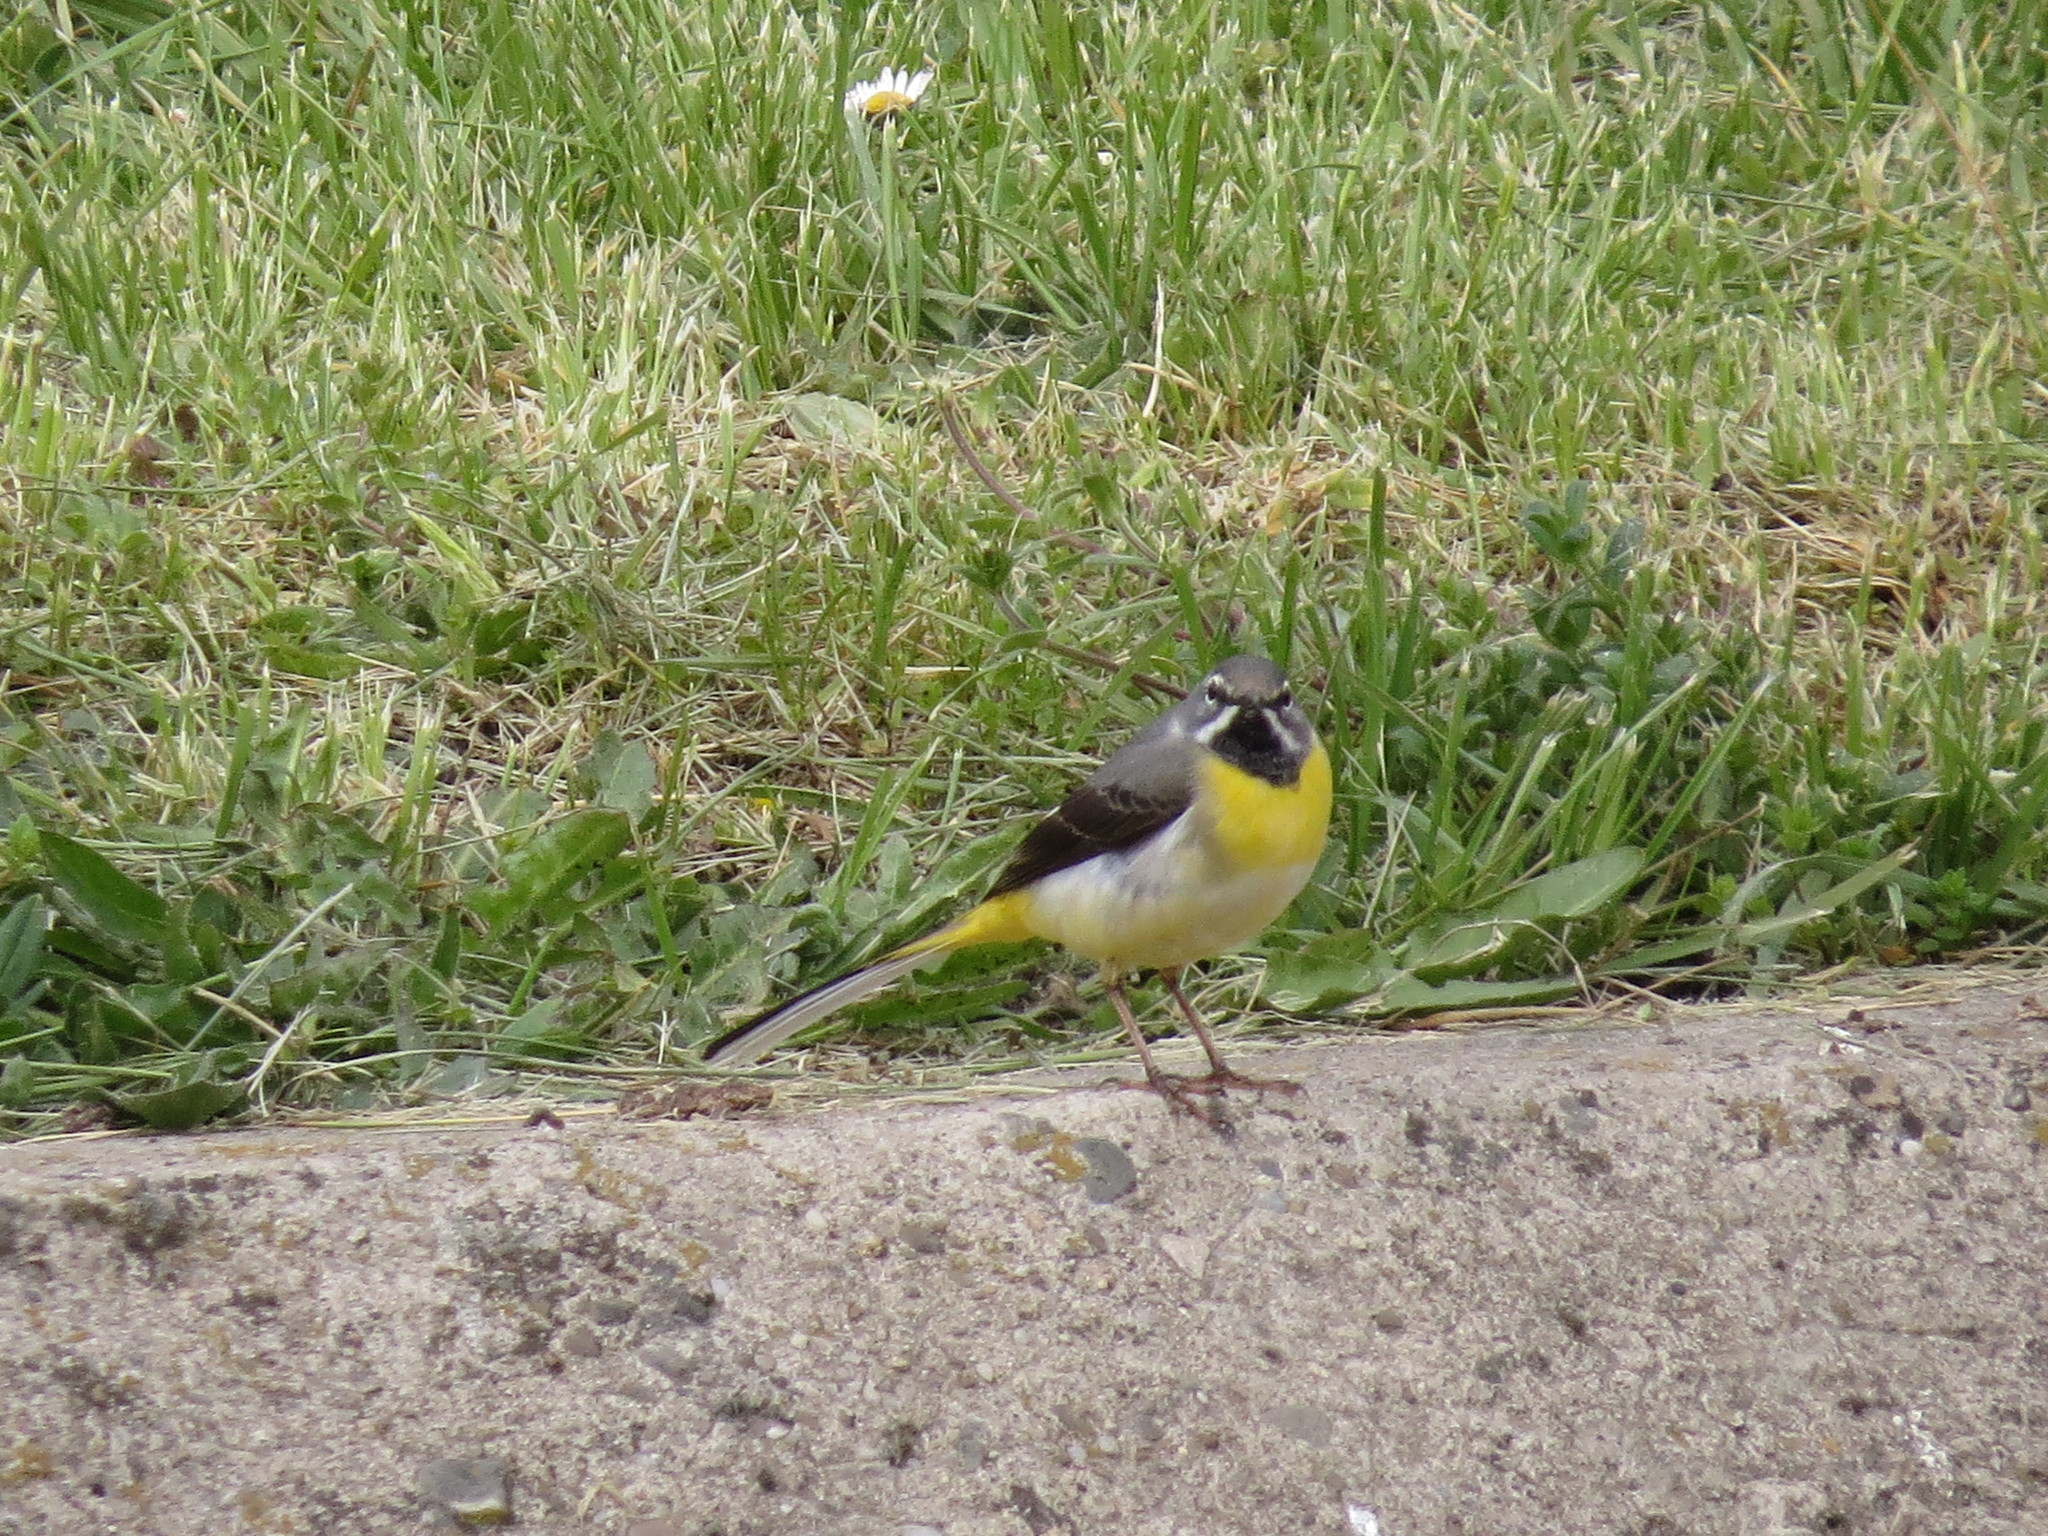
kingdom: Animalia
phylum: Chordata
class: Aves
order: Passeriformes
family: Motacillidae
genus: Motacilla
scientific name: Motacilla cinerea
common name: Grey wagtail
